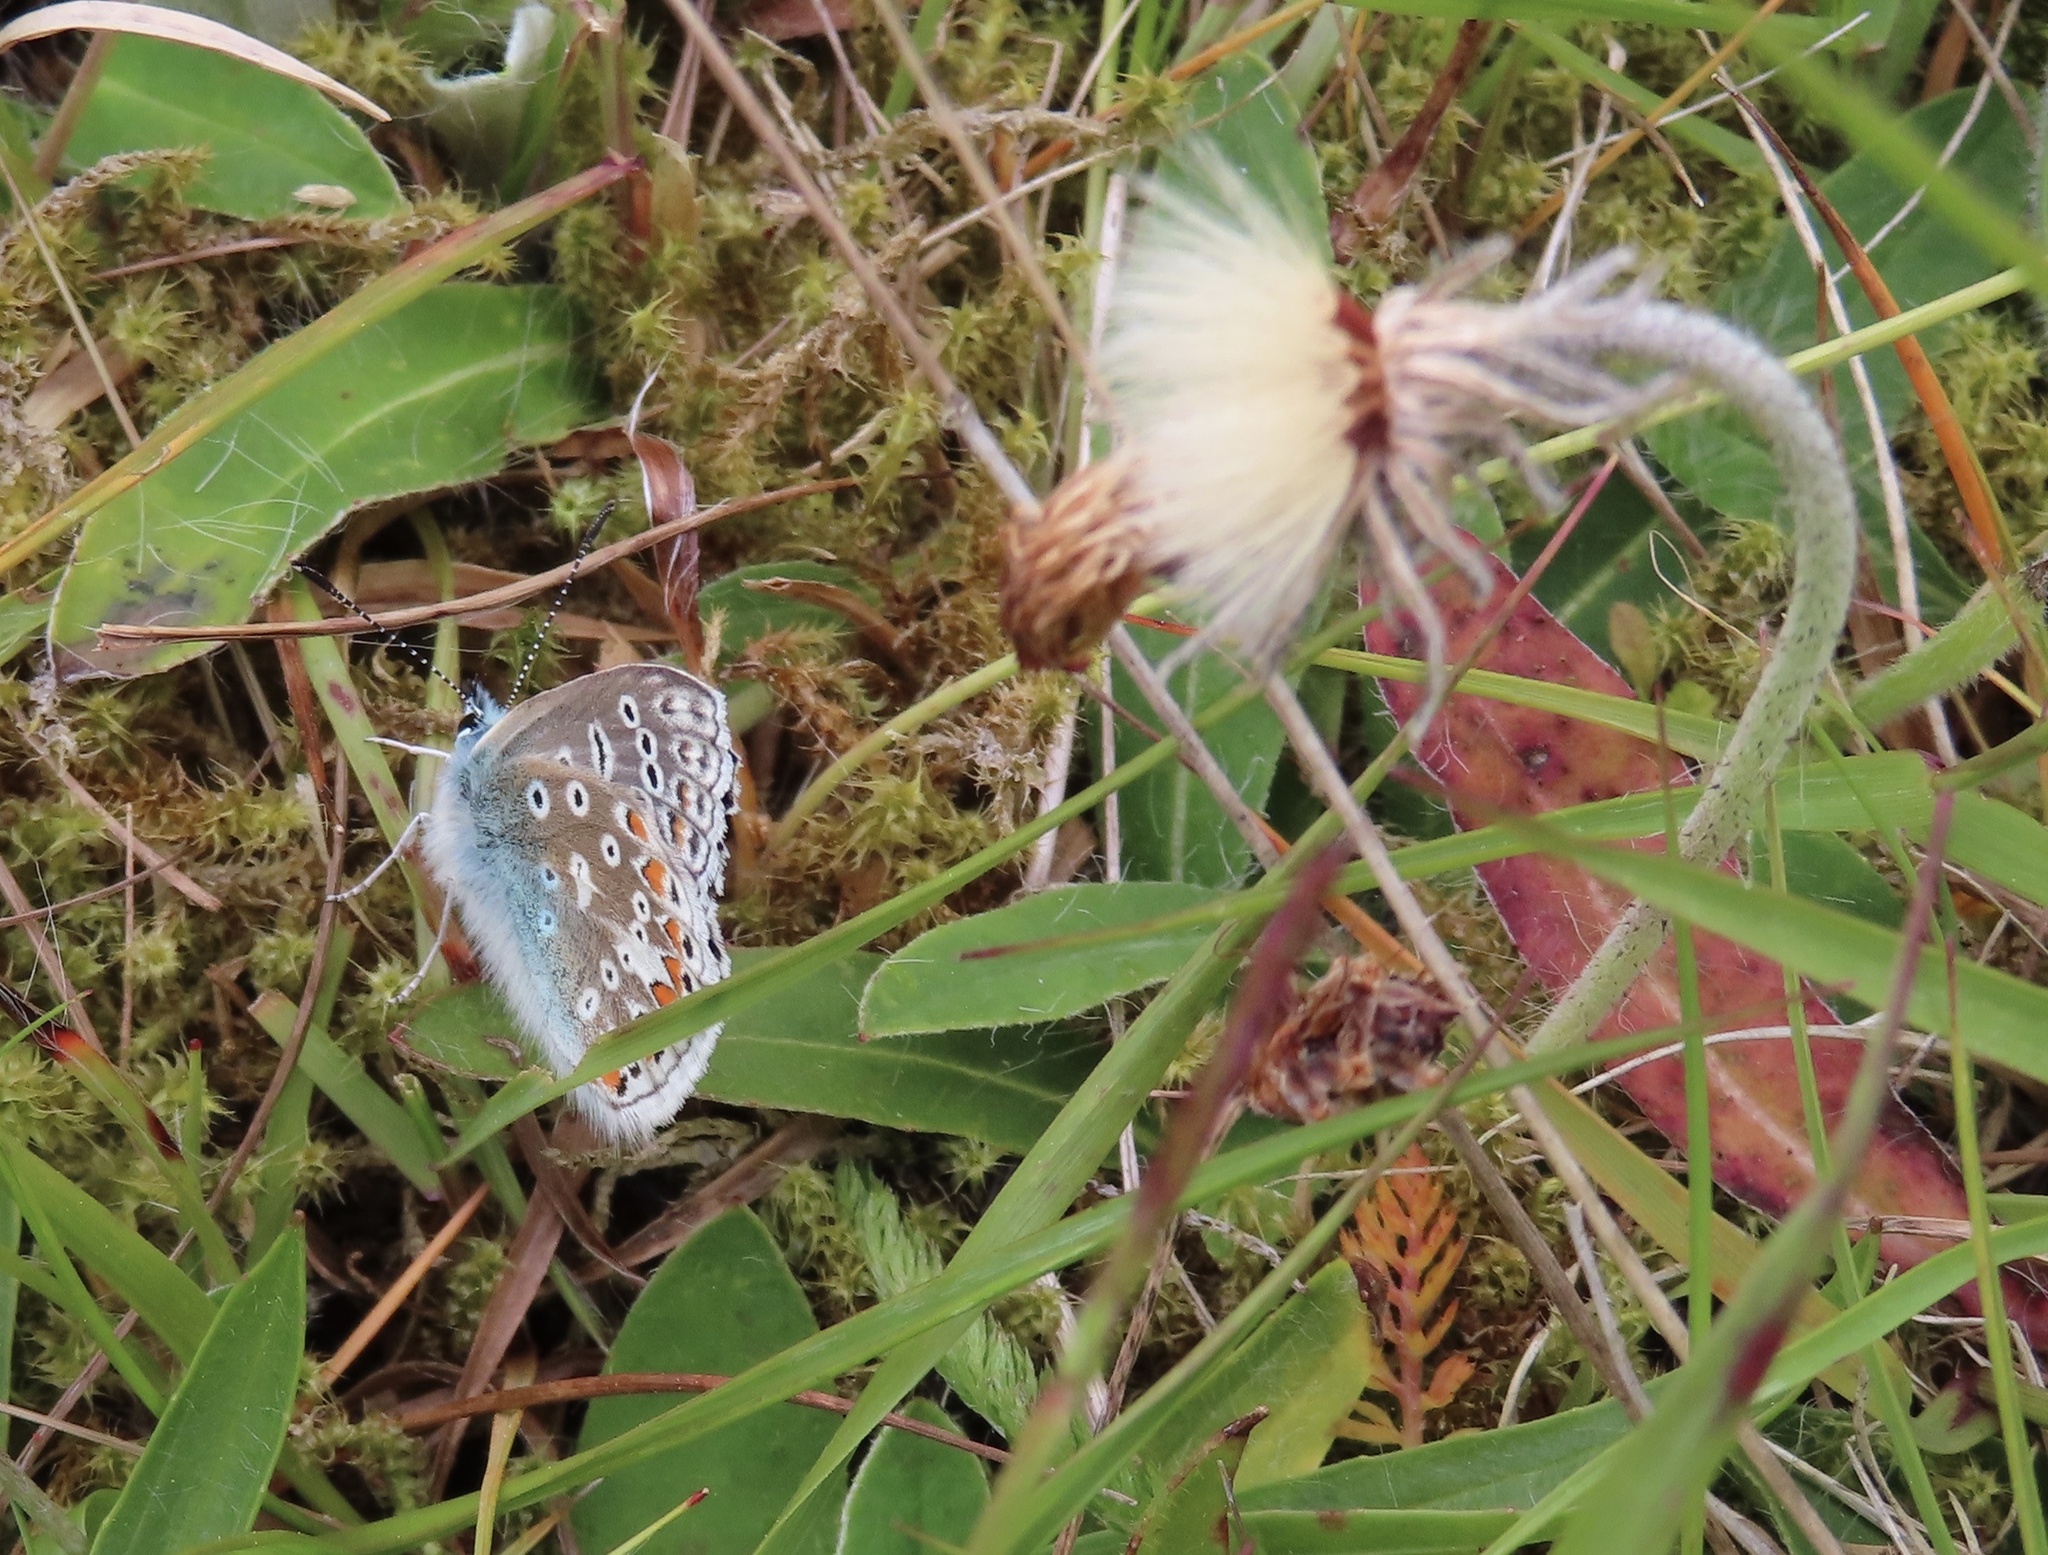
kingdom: Animalia
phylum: Arthropoda
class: Insecta
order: Lepidoptera
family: Lycaenidae
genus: Polyommatus
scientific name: Polyommatus icarus
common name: Common blue
